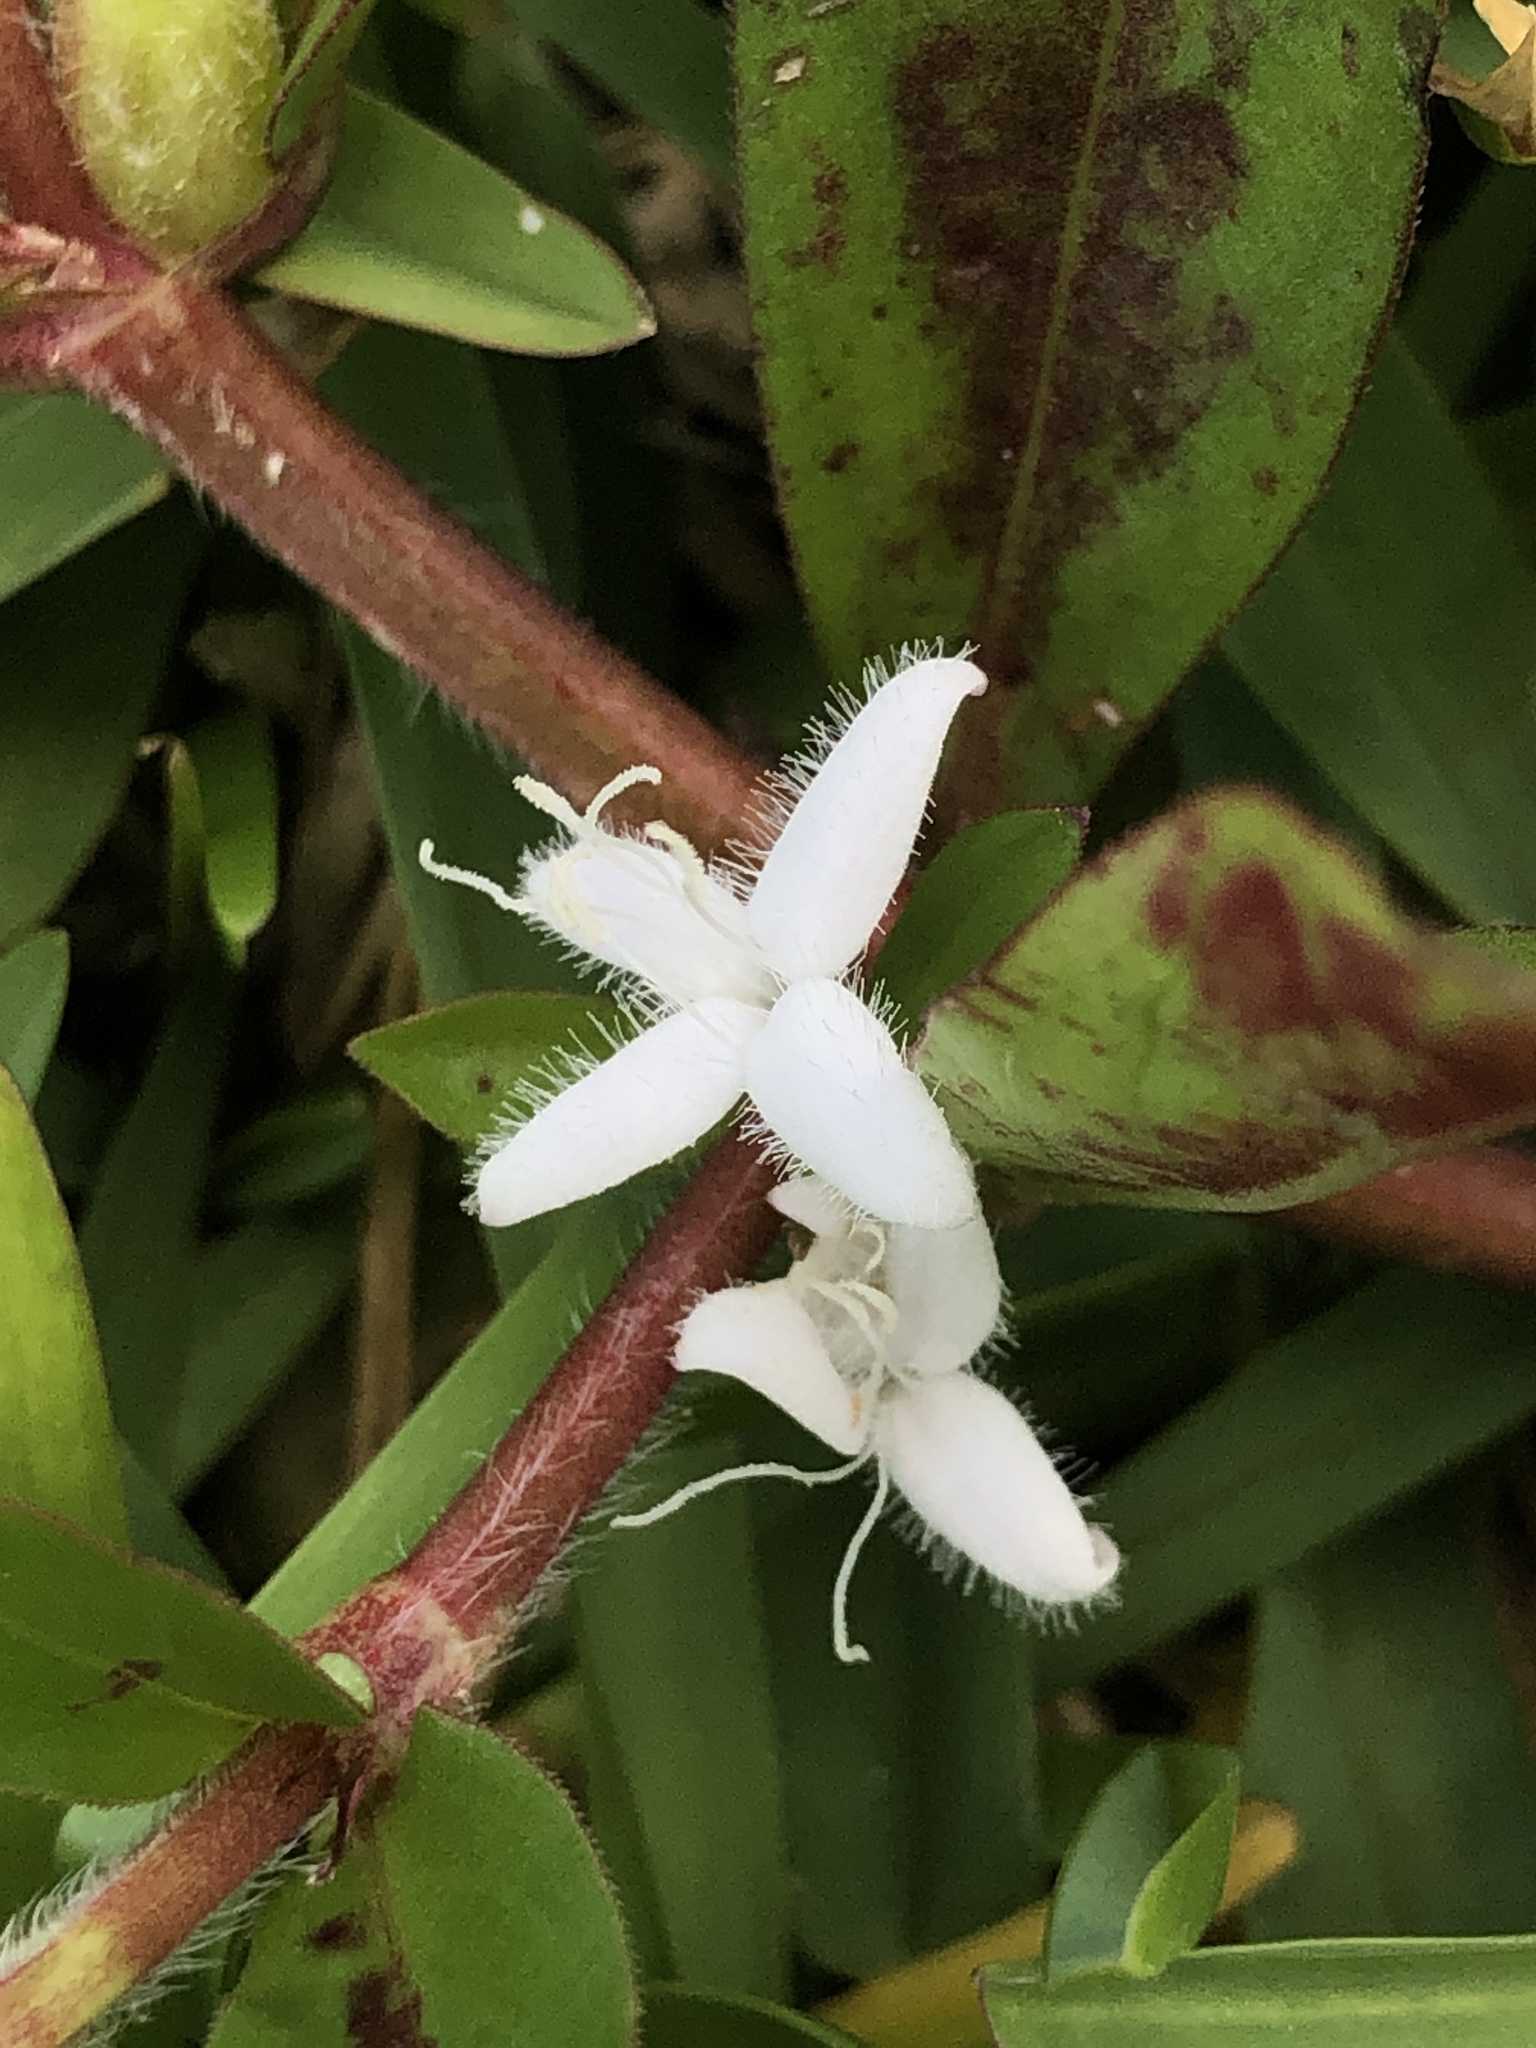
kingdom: Plantae
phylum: Tracheophyta
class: Magnoliopsida
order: Gentianales
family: Rubiaceae
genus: Diodia
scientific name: Diodia virginiana
